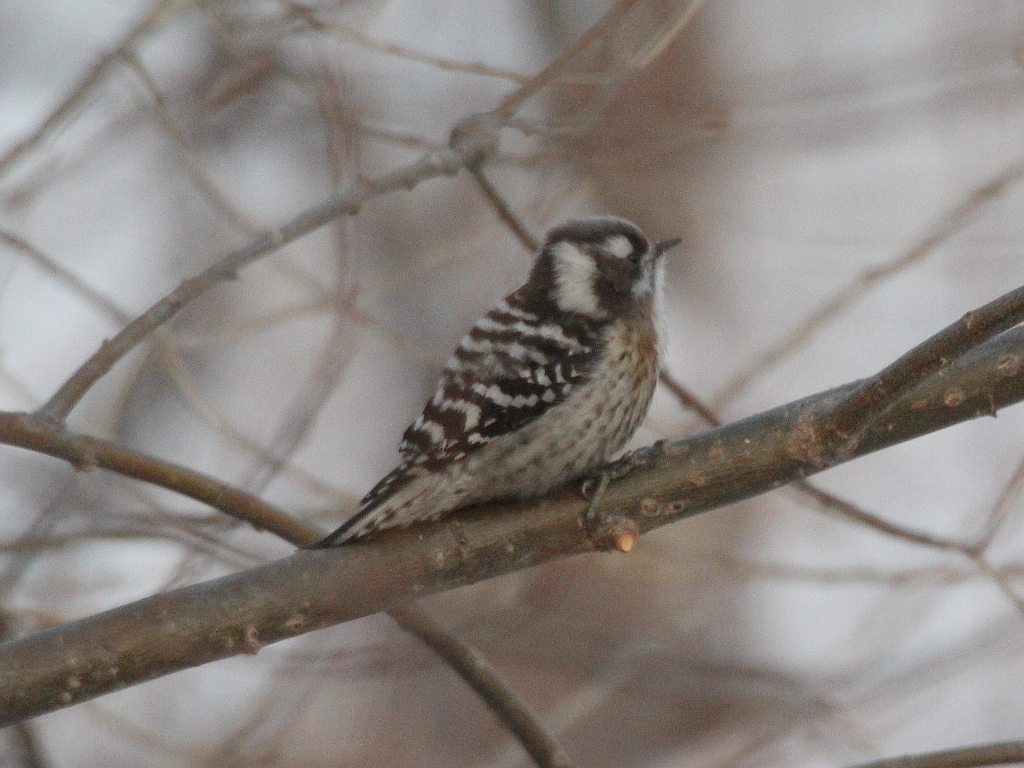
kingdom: Animalia
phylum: Chordata
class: Aves
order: Piciformes
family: Picidae
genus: Yungipicus
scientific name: Yungipicus kizuki
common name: Japanese pygmy woodpecker
